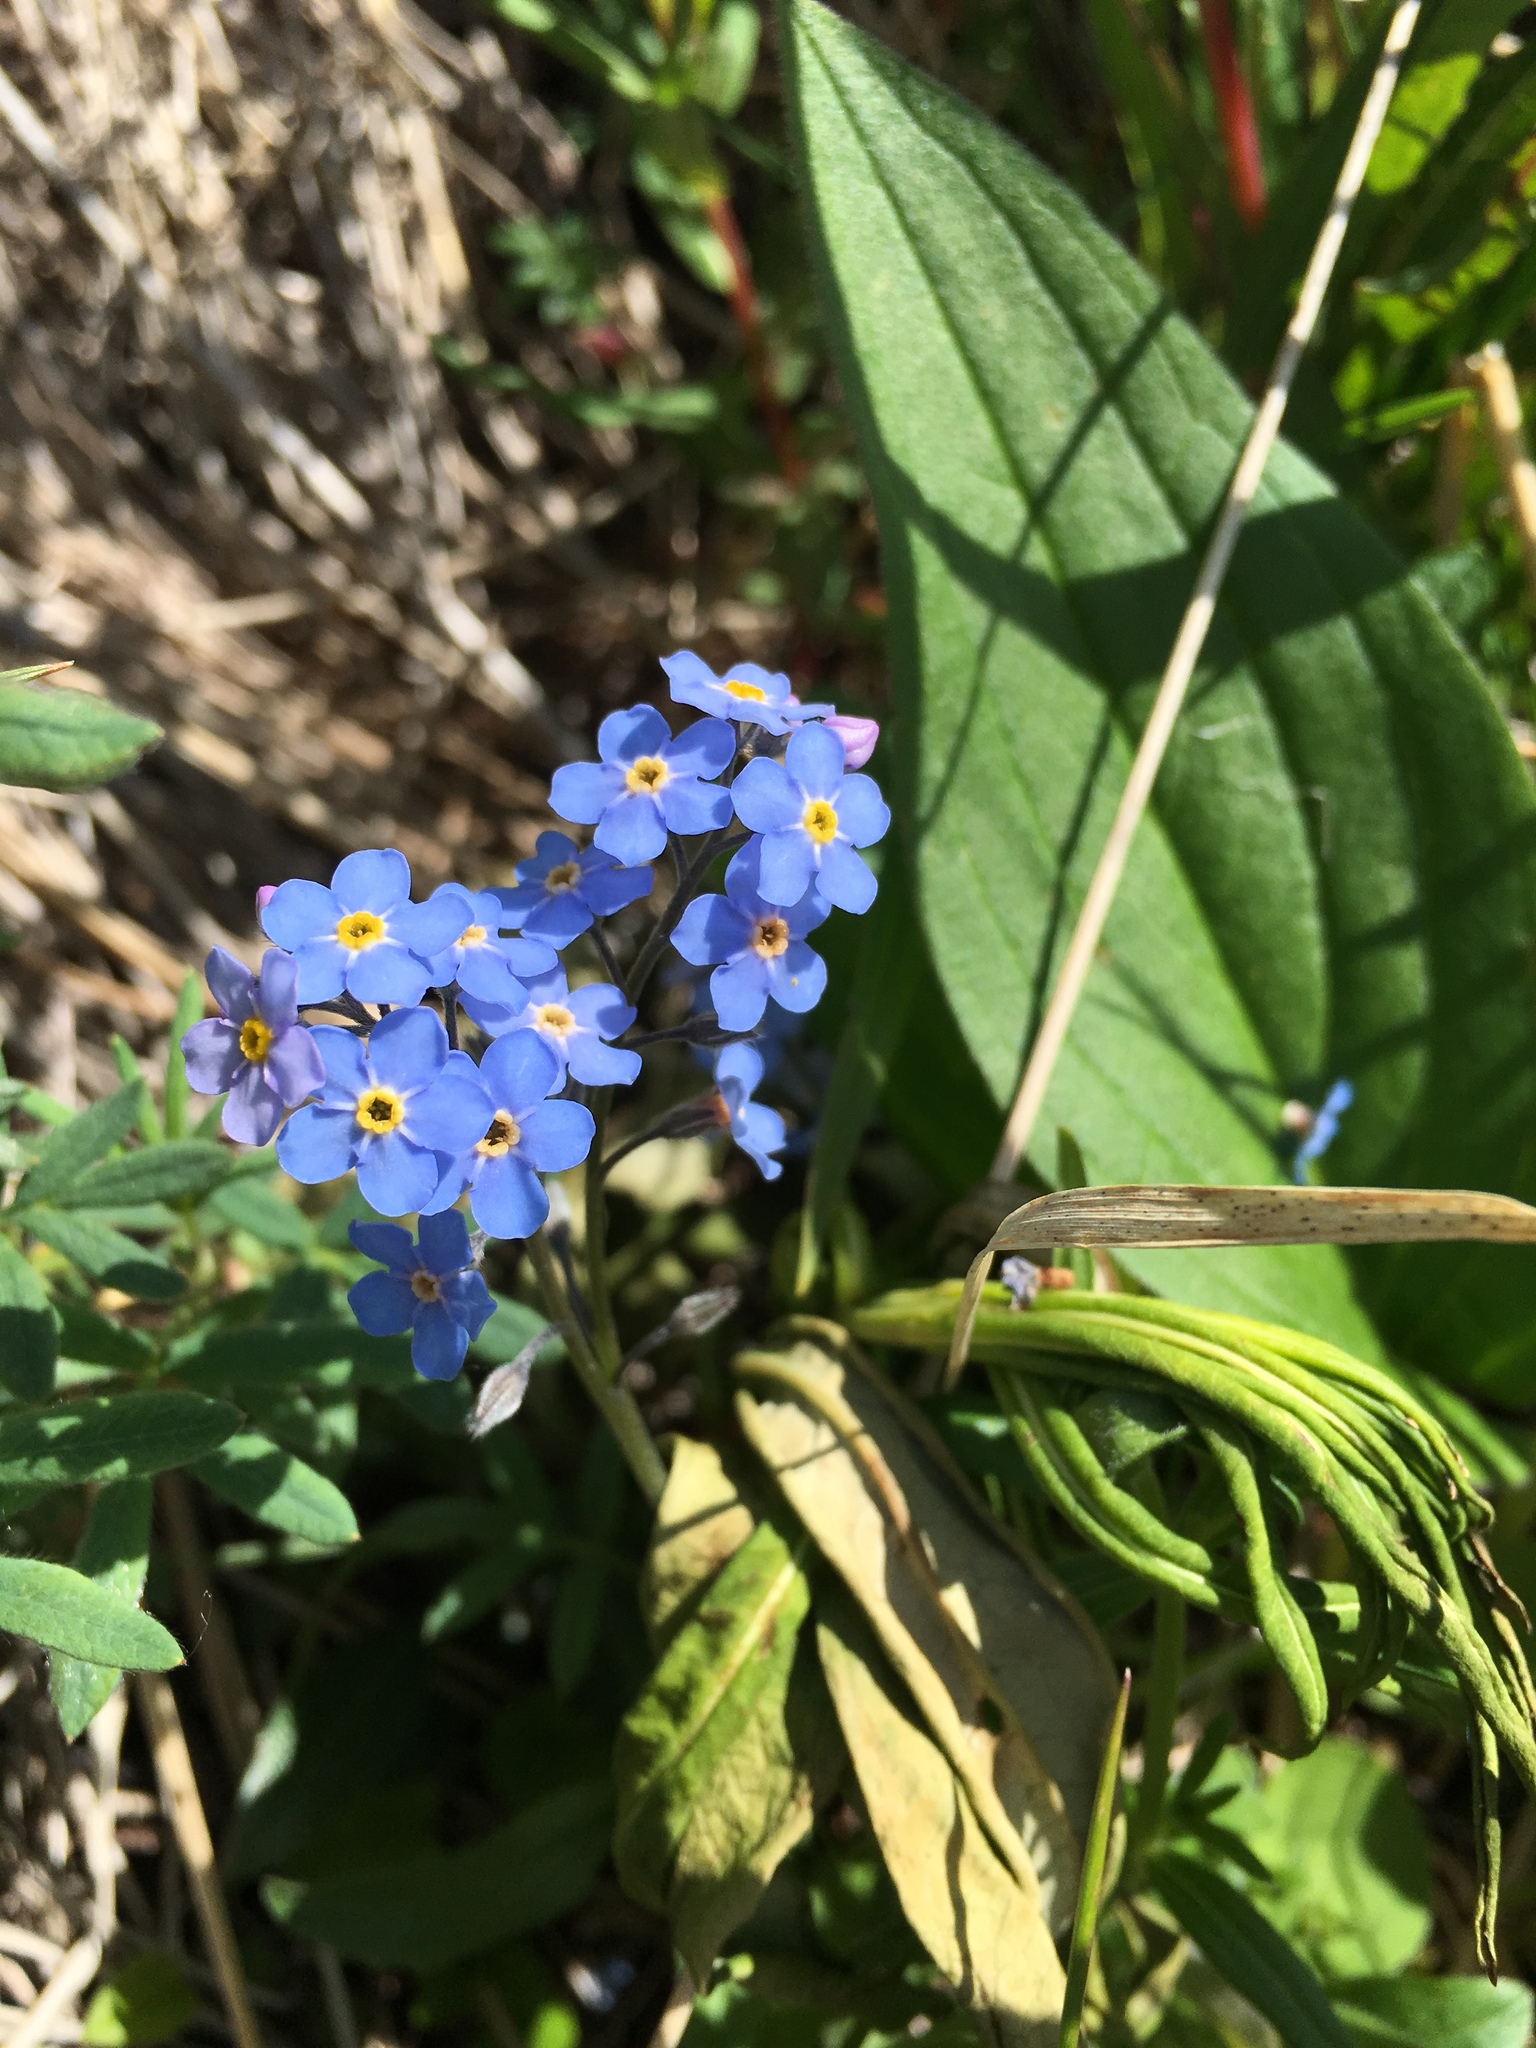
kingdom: Plantae
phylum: Tracheophyta
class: Magnoliopsida
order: Boraginales
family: Boraginaceae
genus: Myosotis
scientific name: Myosotis asiatica
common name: Asian forget-me-not
